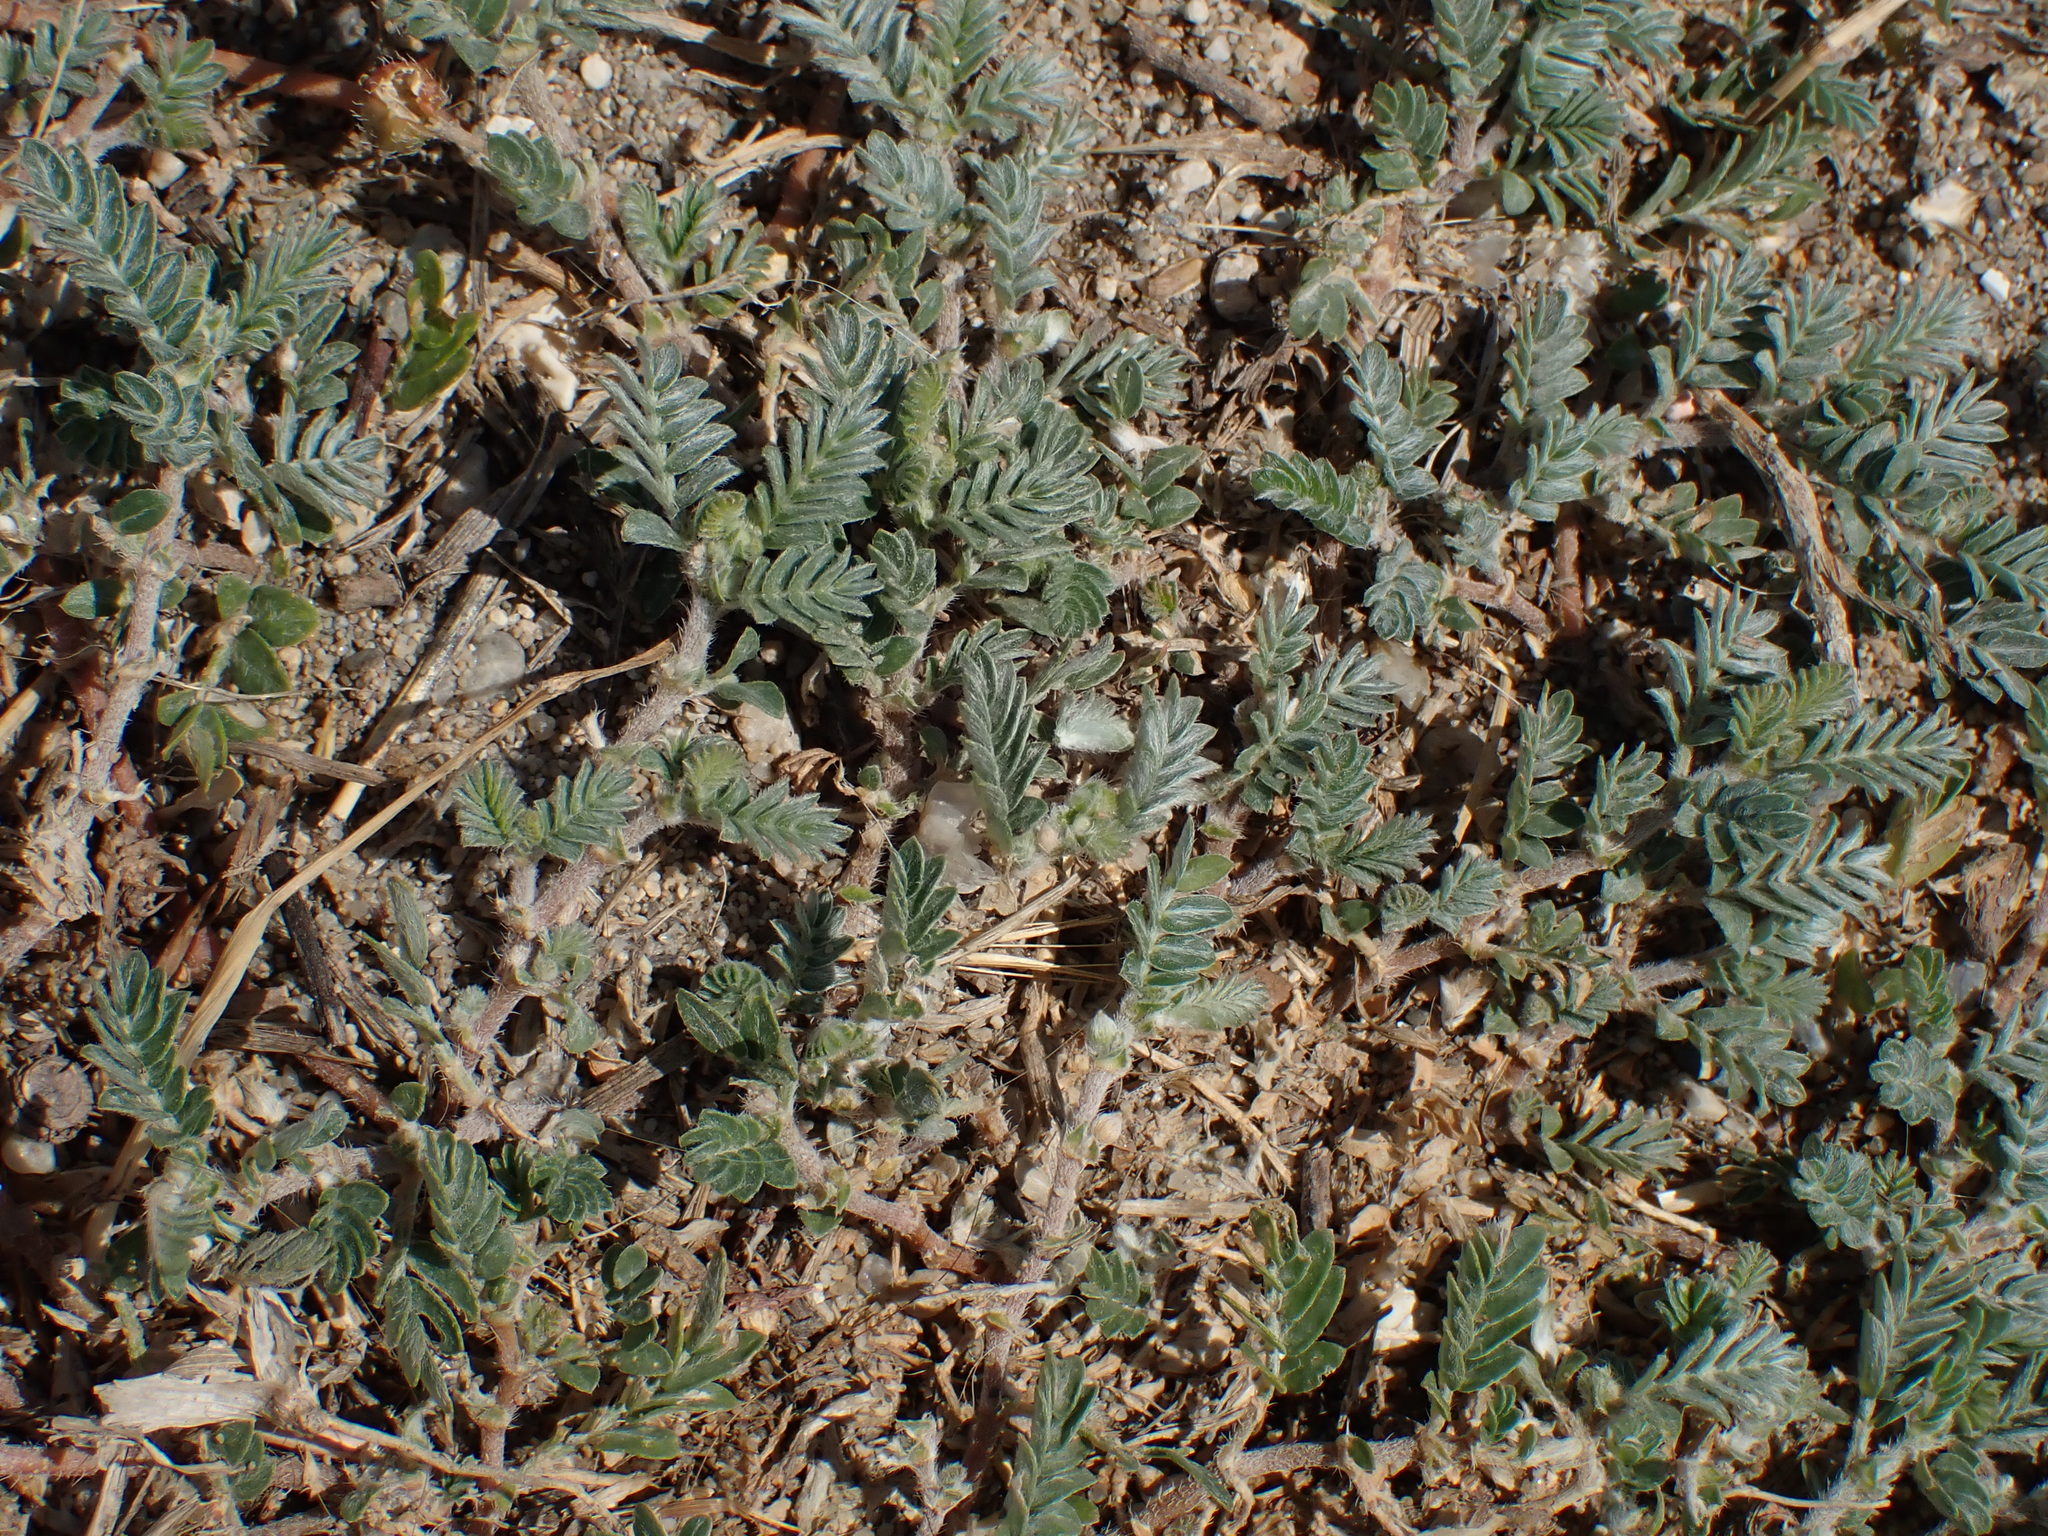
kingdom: Plantae
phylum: Tracheophyta
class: Magnoliopsida
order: Zygophyllales
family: Zygophyllaceae
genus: Tribulus
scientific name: Tribulus terrestris
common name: Puncturevine
